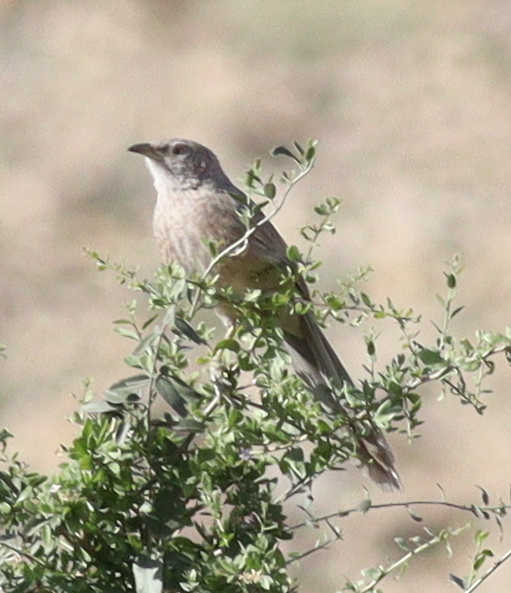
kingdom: Animalia
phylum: Chordata
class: Aves
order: Passeriformes
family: Leiothrichidae
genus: Turdoides
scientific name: Turdoides squamiceps
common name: Arabian babbler
